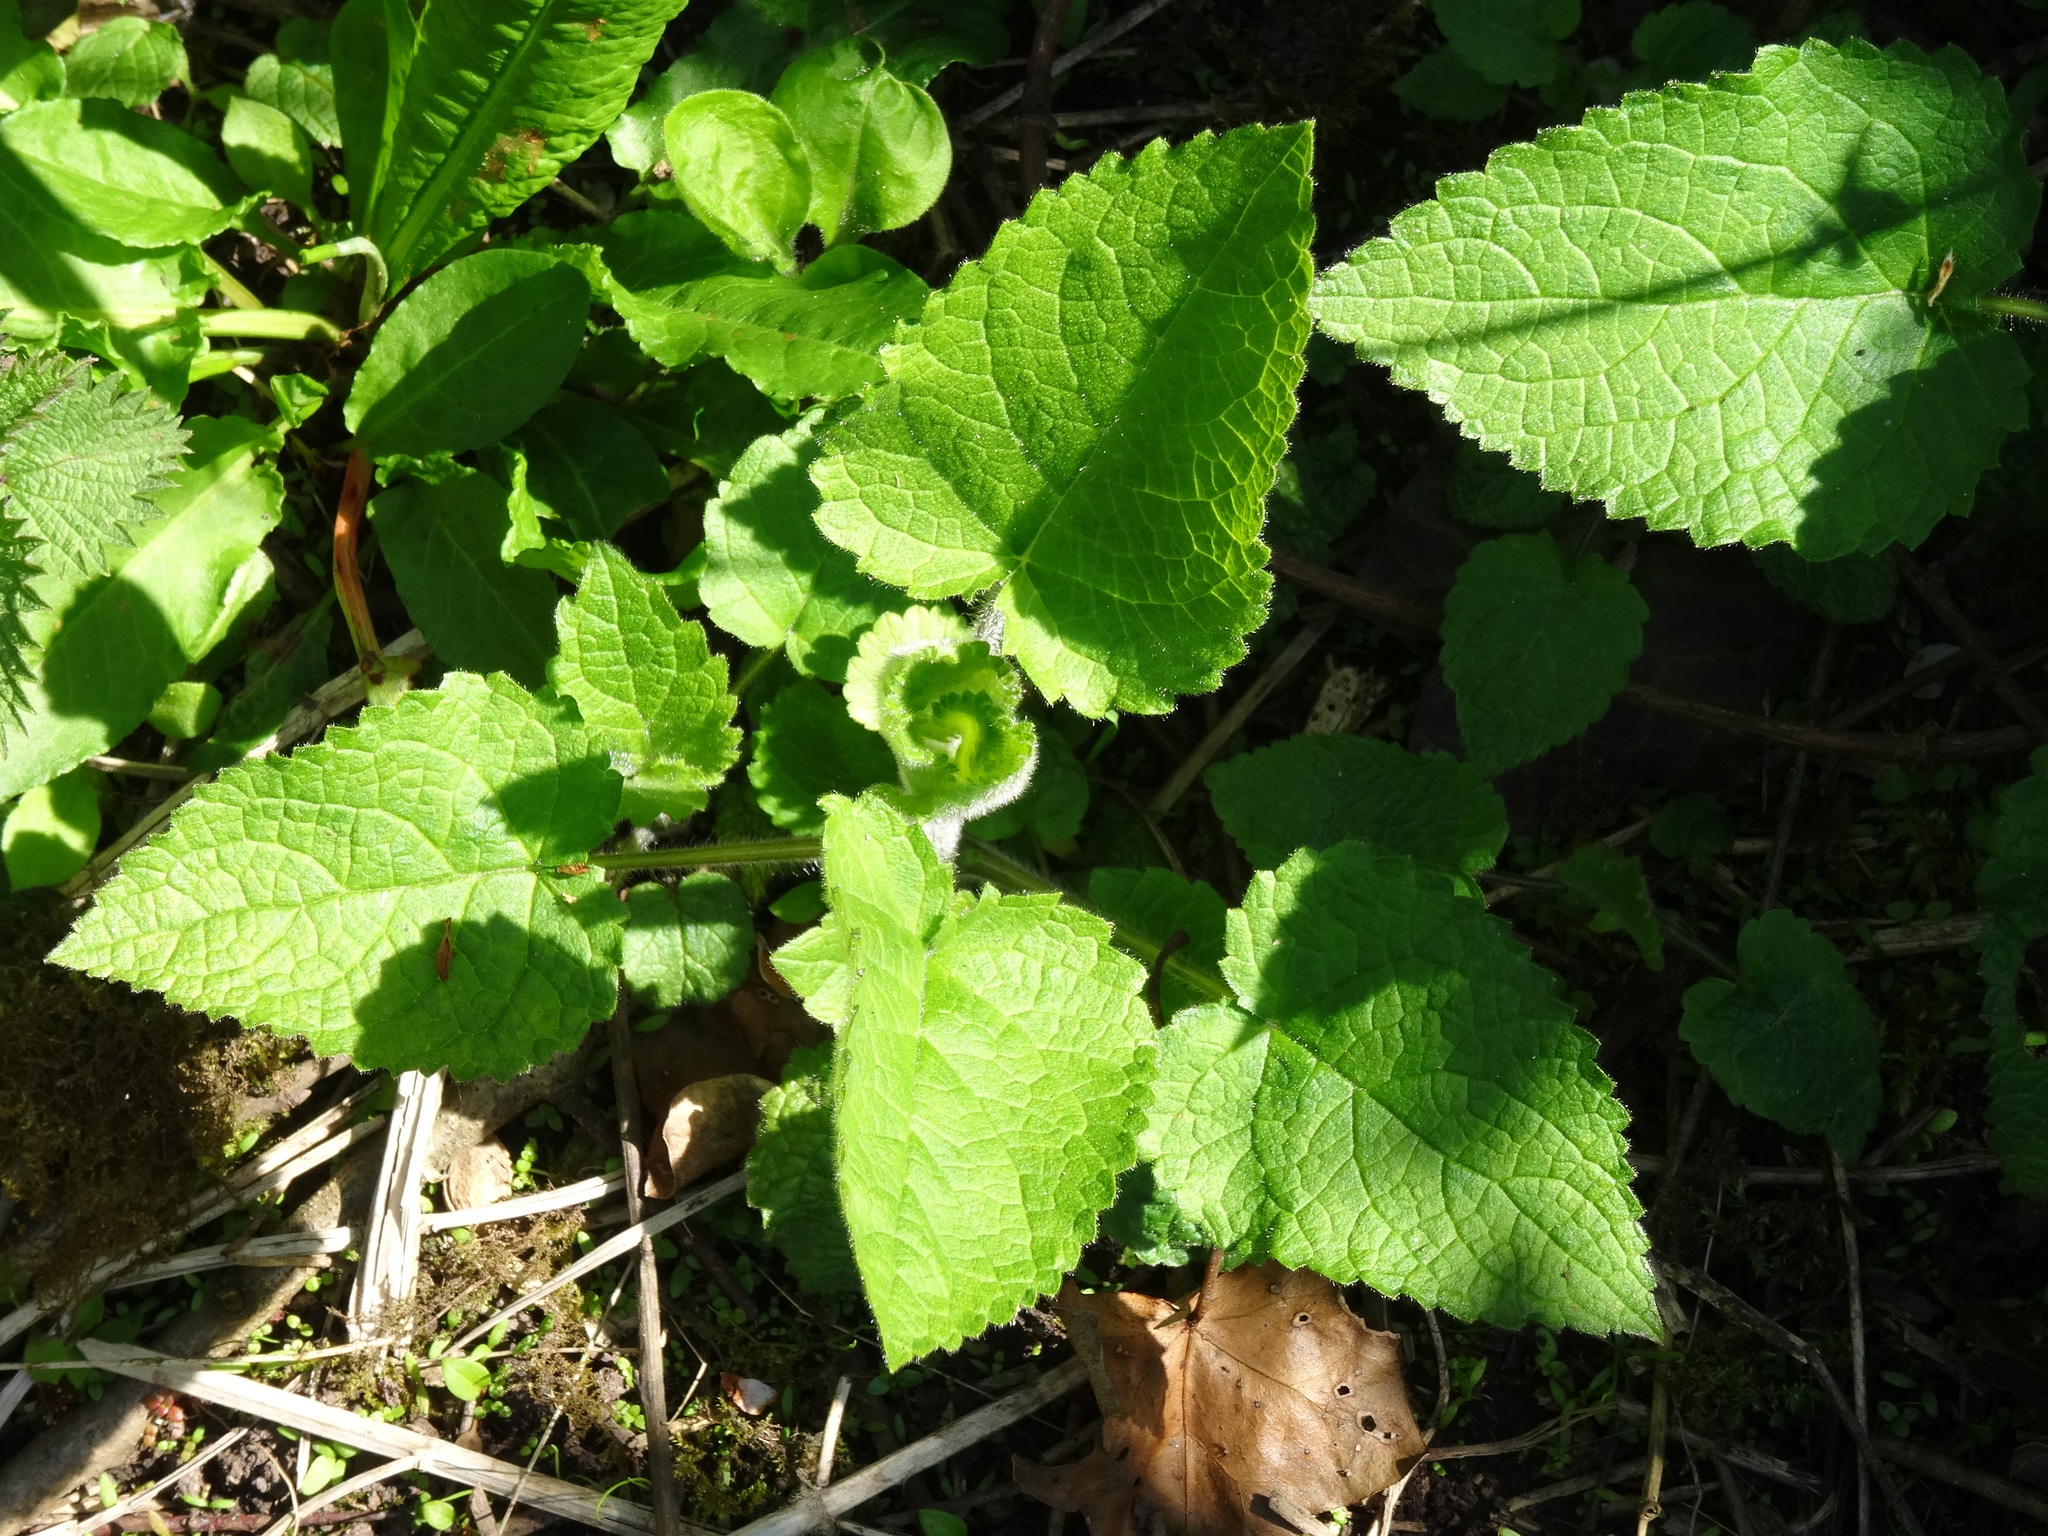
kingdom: Plantae
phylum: Tracheophyta
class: Magnoliopsida
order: Lamiales
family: Lamiaceae
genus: Stachys
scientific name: Stachys sylvatica
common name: Hedge woundwort
